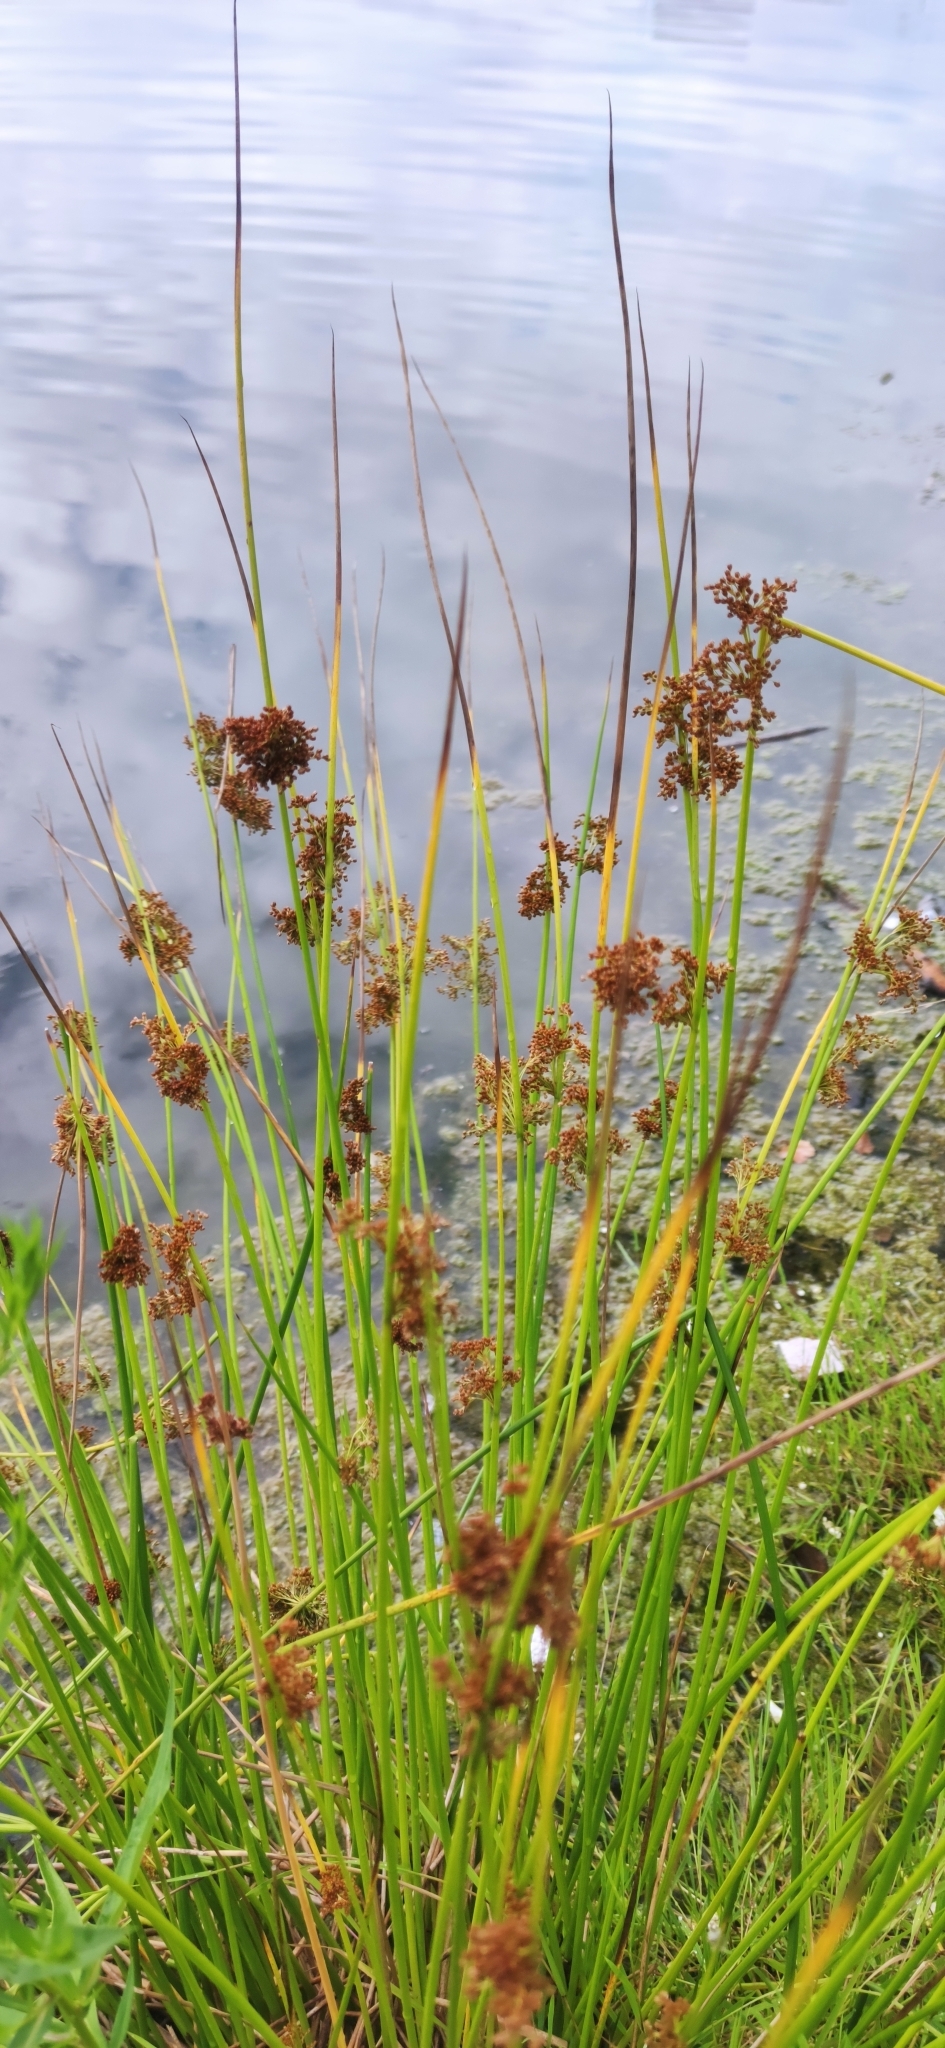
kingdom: Plantae
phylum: Tracheophyta
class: Liliopsida
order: Poales
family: Juncaceae
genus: Juncus
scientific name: Juncus effusus
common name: Soft rush
